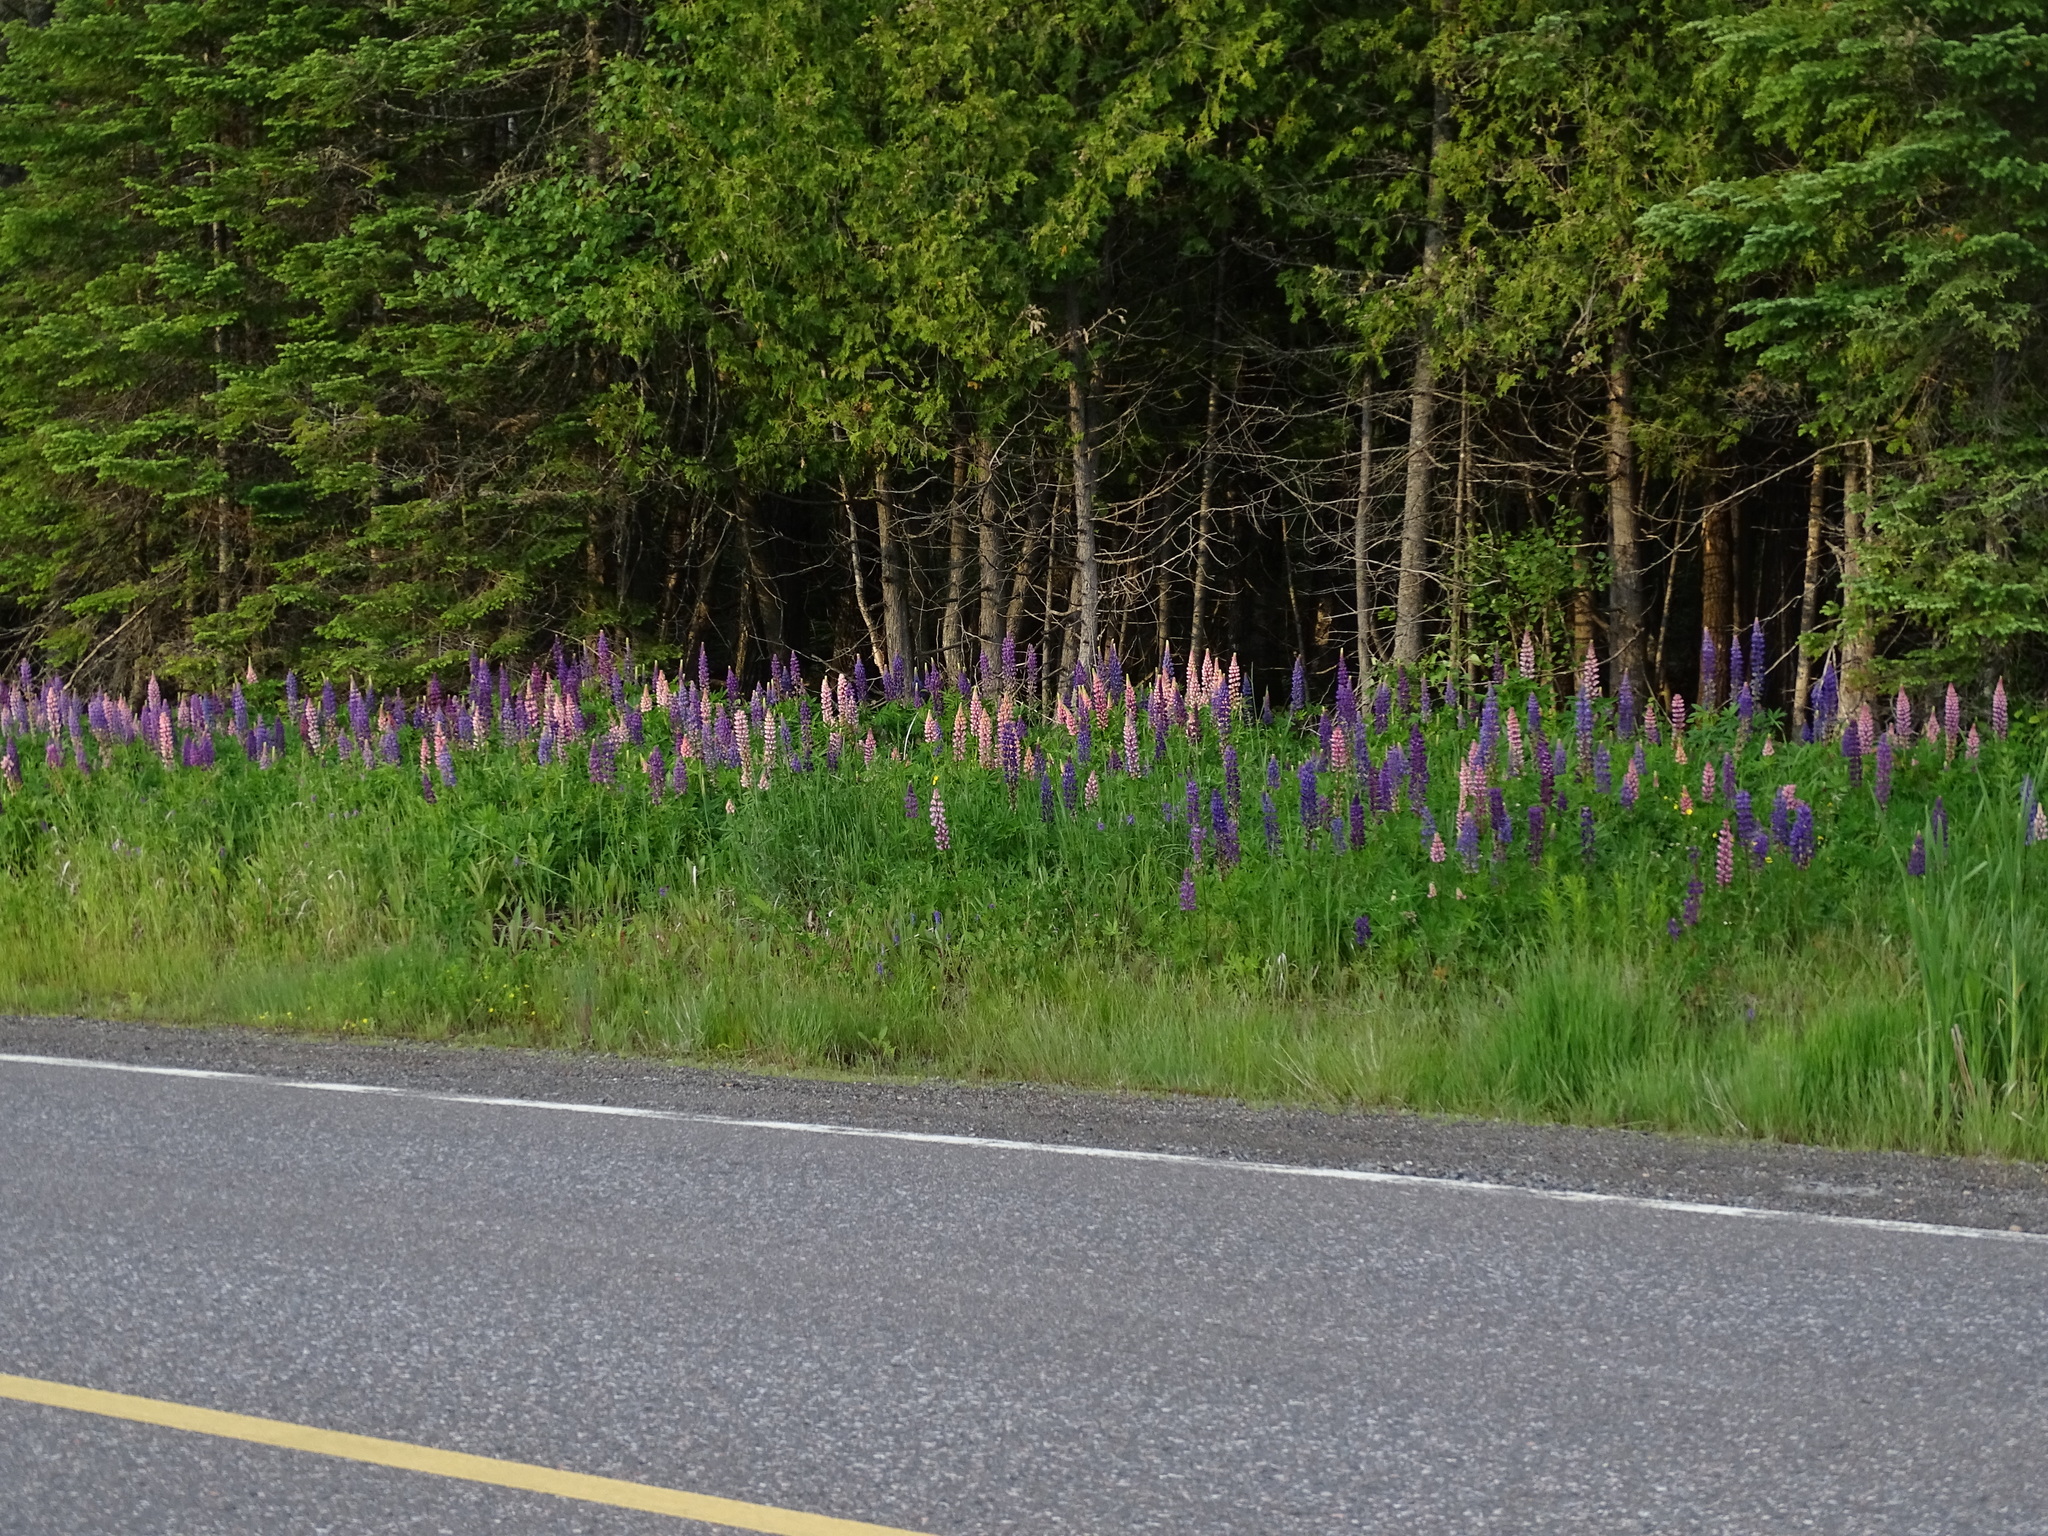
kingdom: Plantae
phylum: Tracheophyta
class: Magnoliopsida
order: Fabales
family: Fabaceae
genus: Lupinus
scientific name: Lupinus polyphyllus
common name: Garden lupin
